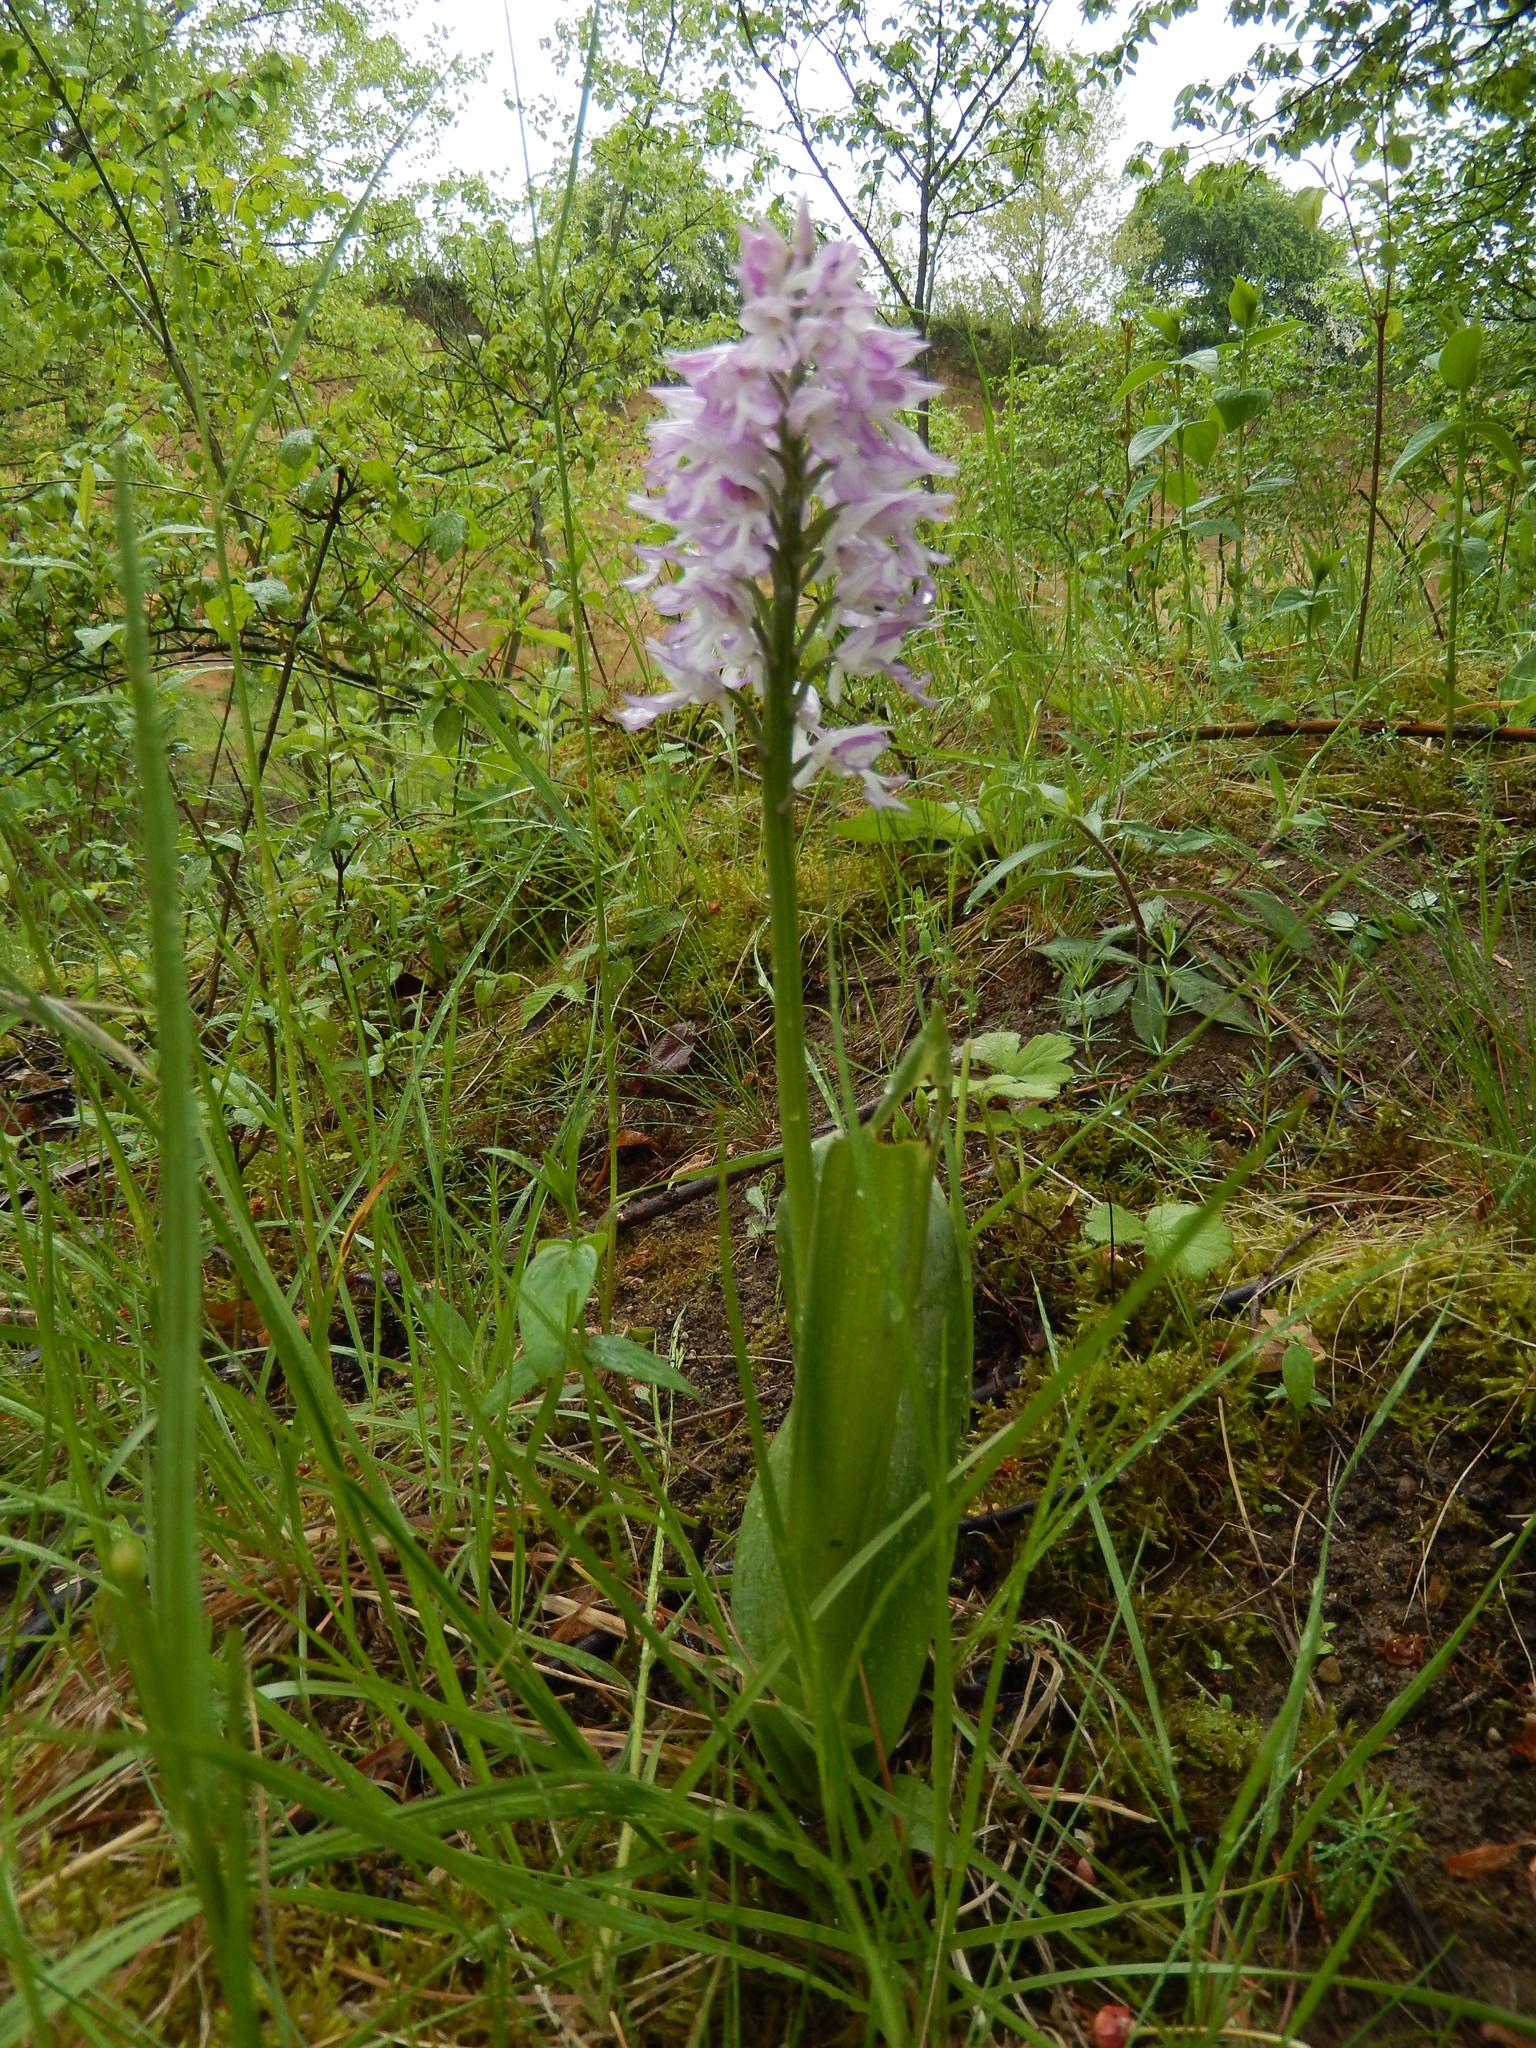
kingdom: Plantae
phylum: Tracheophyta
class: Liliopsida
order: Asparagales
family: Orchidaceae
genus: Orchis
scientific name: Orchis militaris
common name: Military orchid
